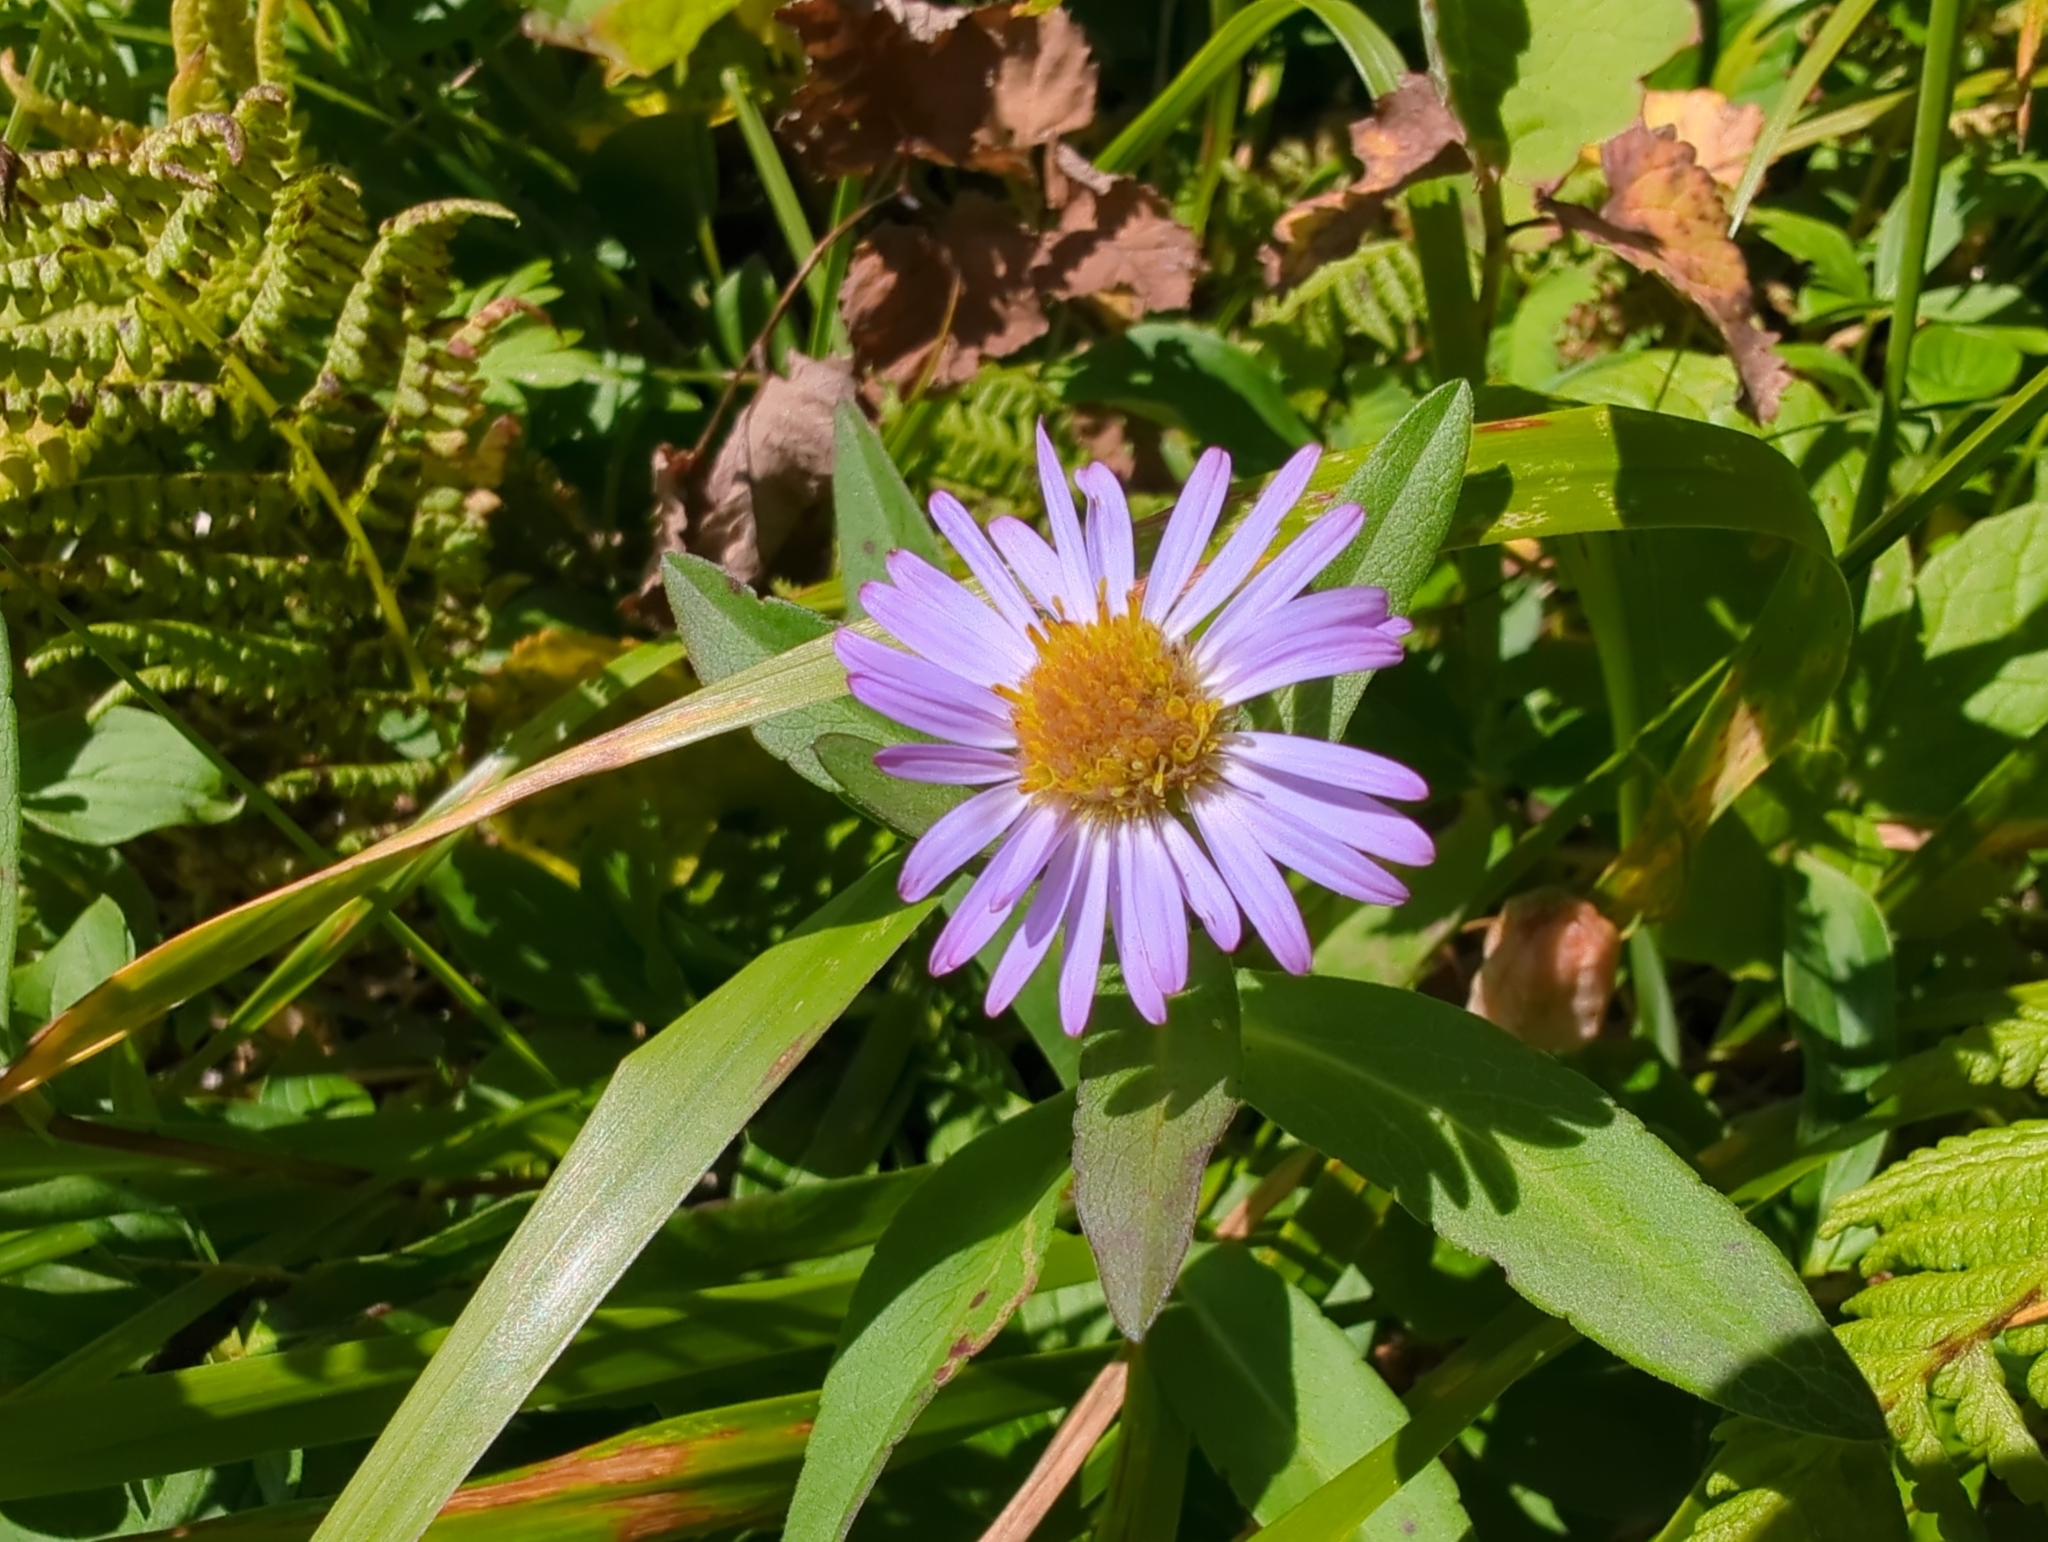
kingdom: Plantae
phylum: Tracheophyta
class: Magnoliopsida
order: Asterales
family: Asteraceae
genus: Symphyotrichum
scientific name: Symphyotrichum subspicatum
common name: Douglas' aster
